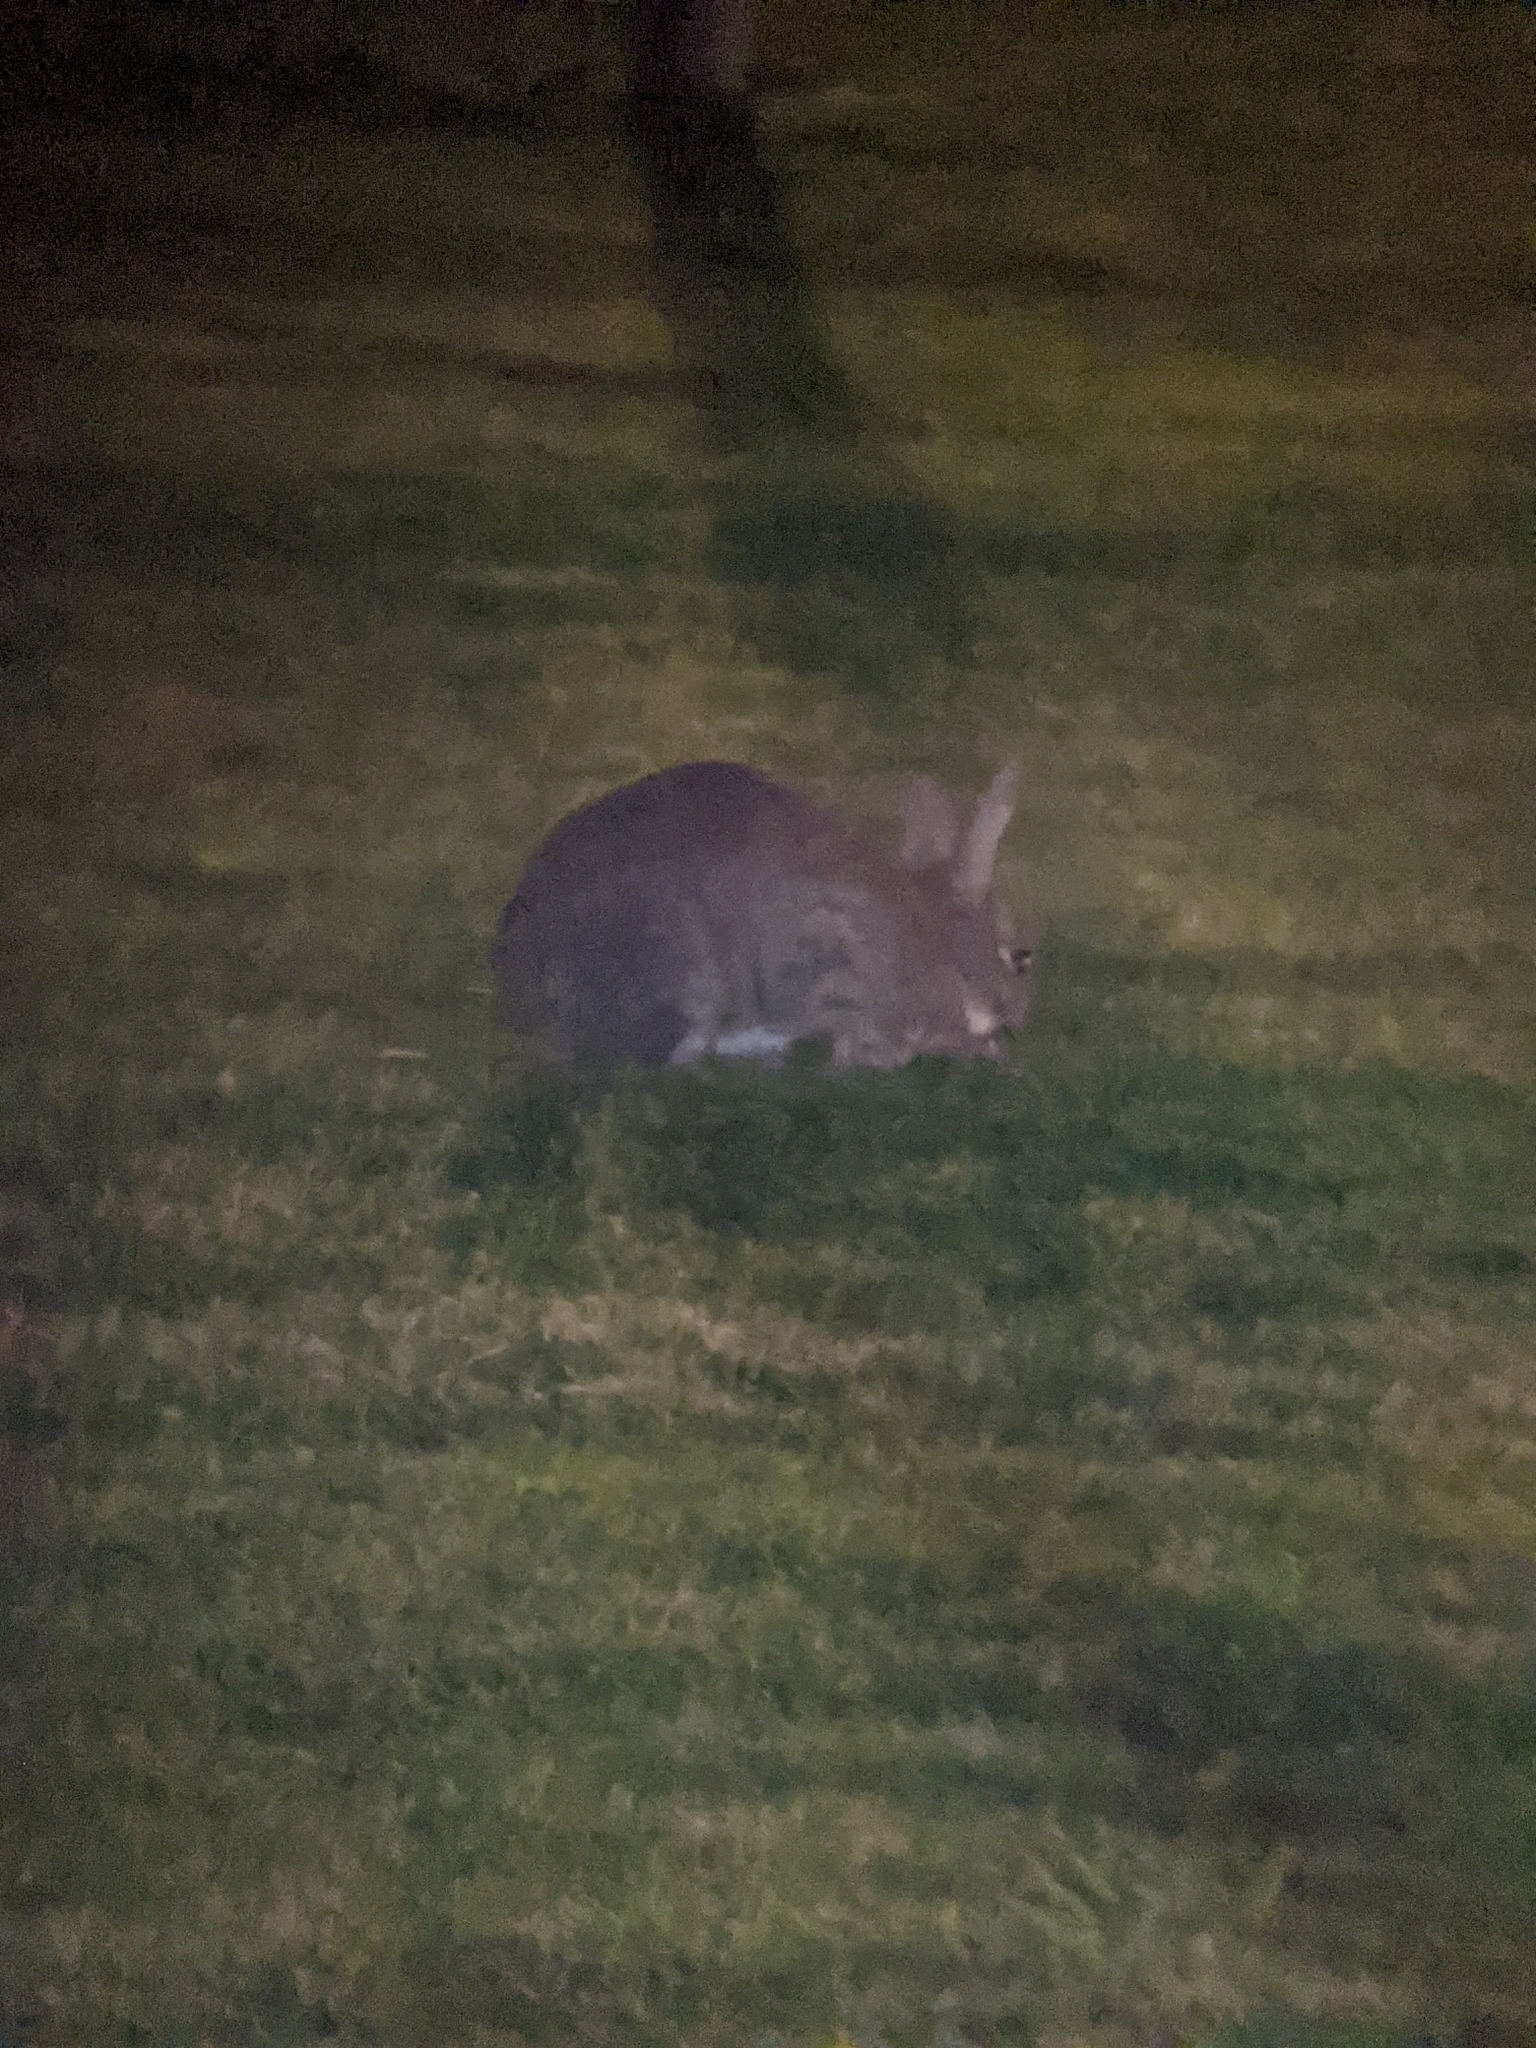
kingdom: Animalia
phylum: Chordata
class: Mammalia
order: Lagomorpha
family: Leporidae
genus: Oryctolagus
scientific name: Oryctolagus cuniculus
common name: European rabbit
